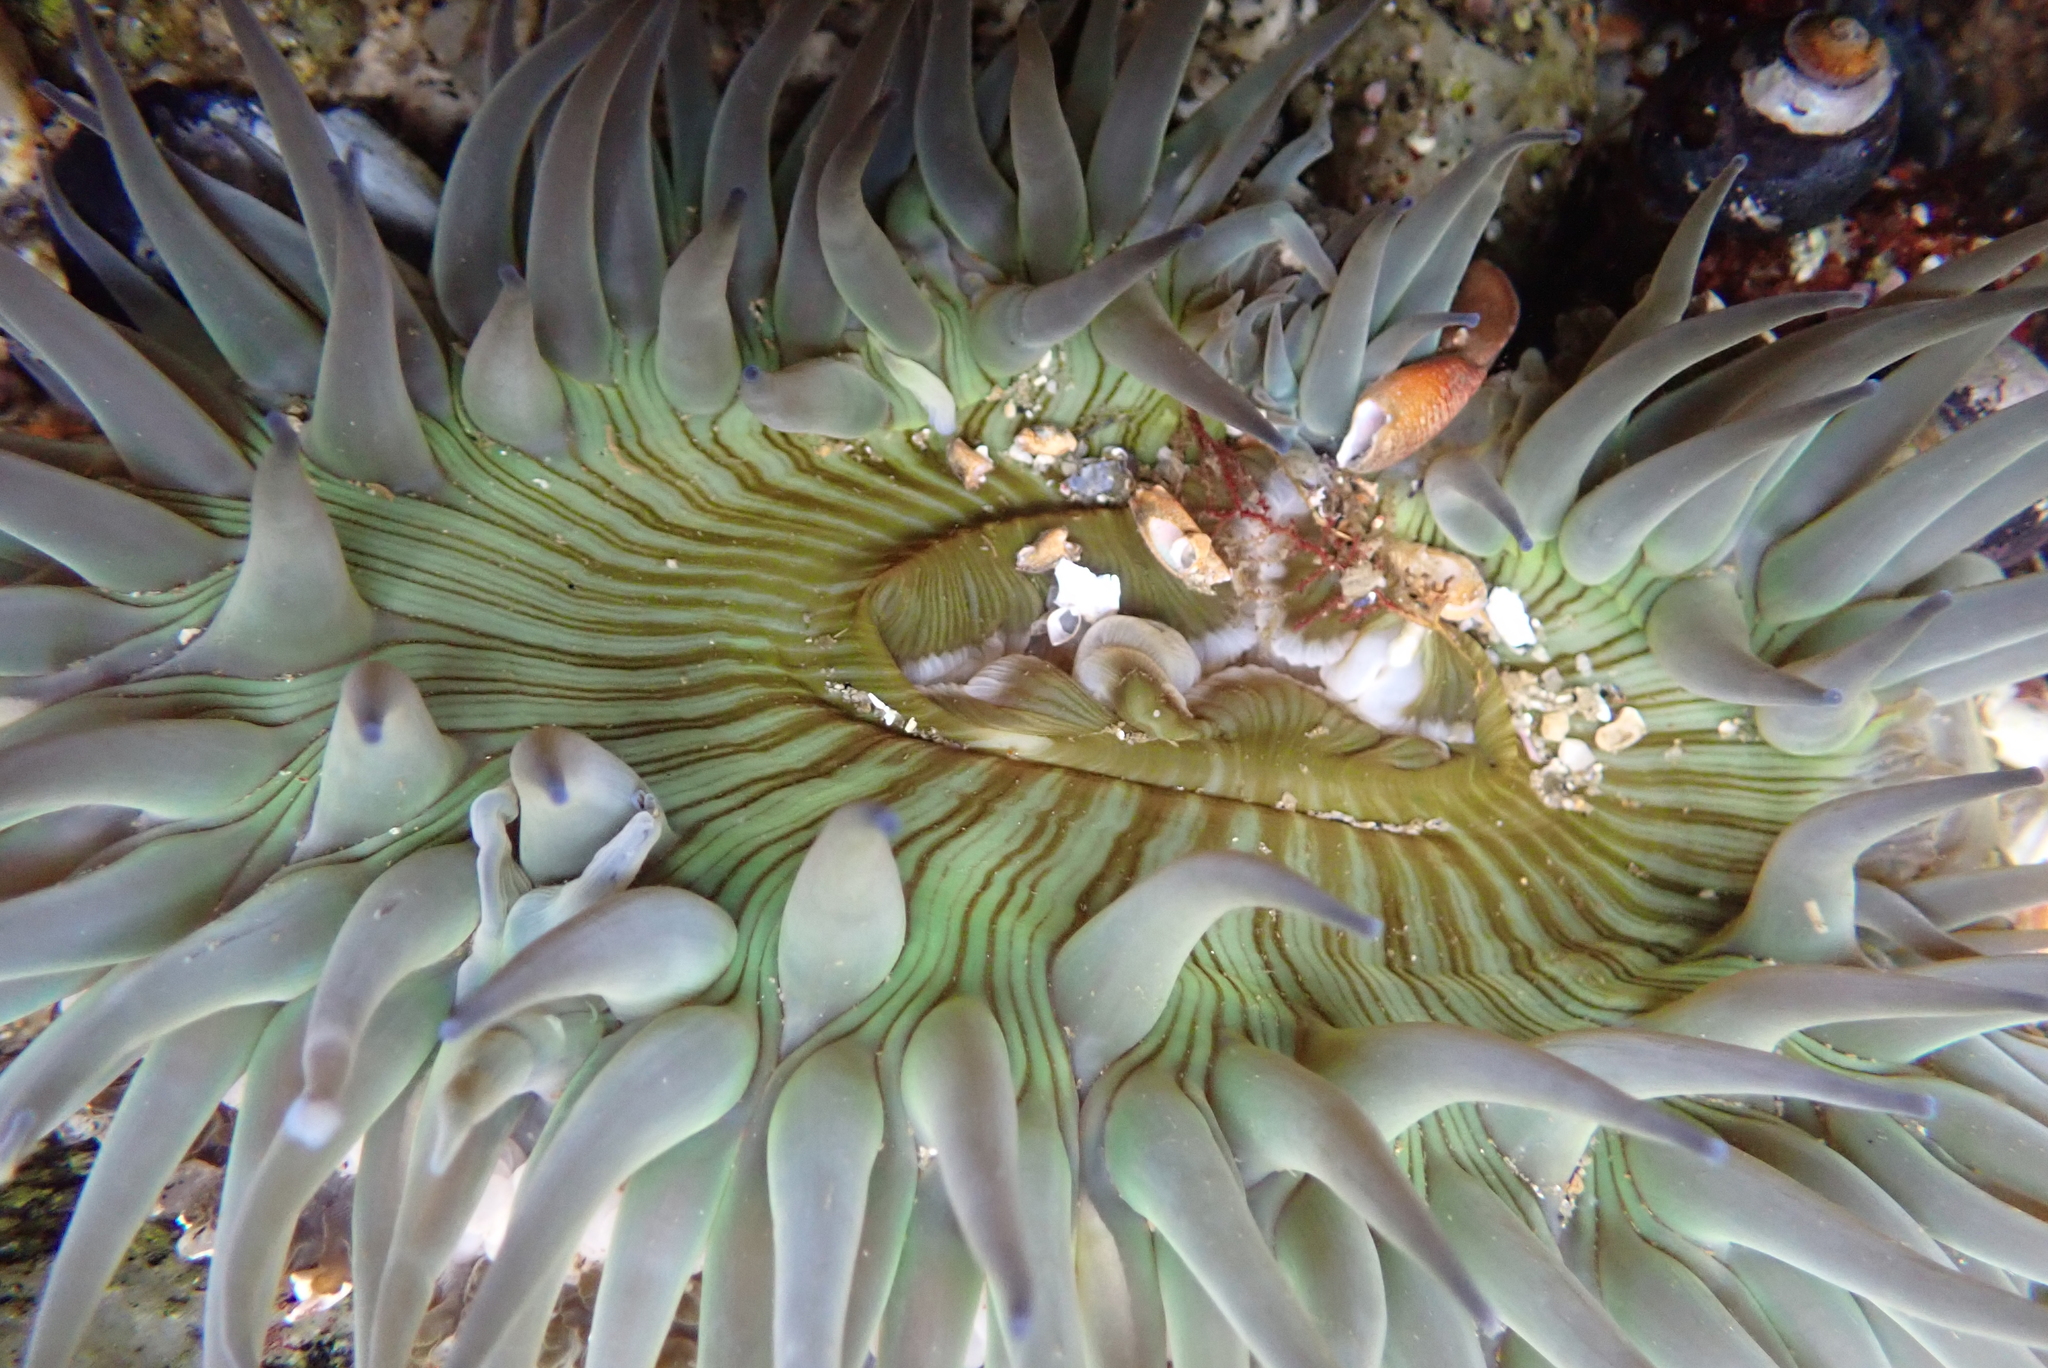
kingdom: Animalia
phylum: Cnidaria
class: Anthozoa
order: Actiniaria
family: Actiniidae
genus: Anthopleura
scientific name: Anthopleura sola
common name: Sun anemone
